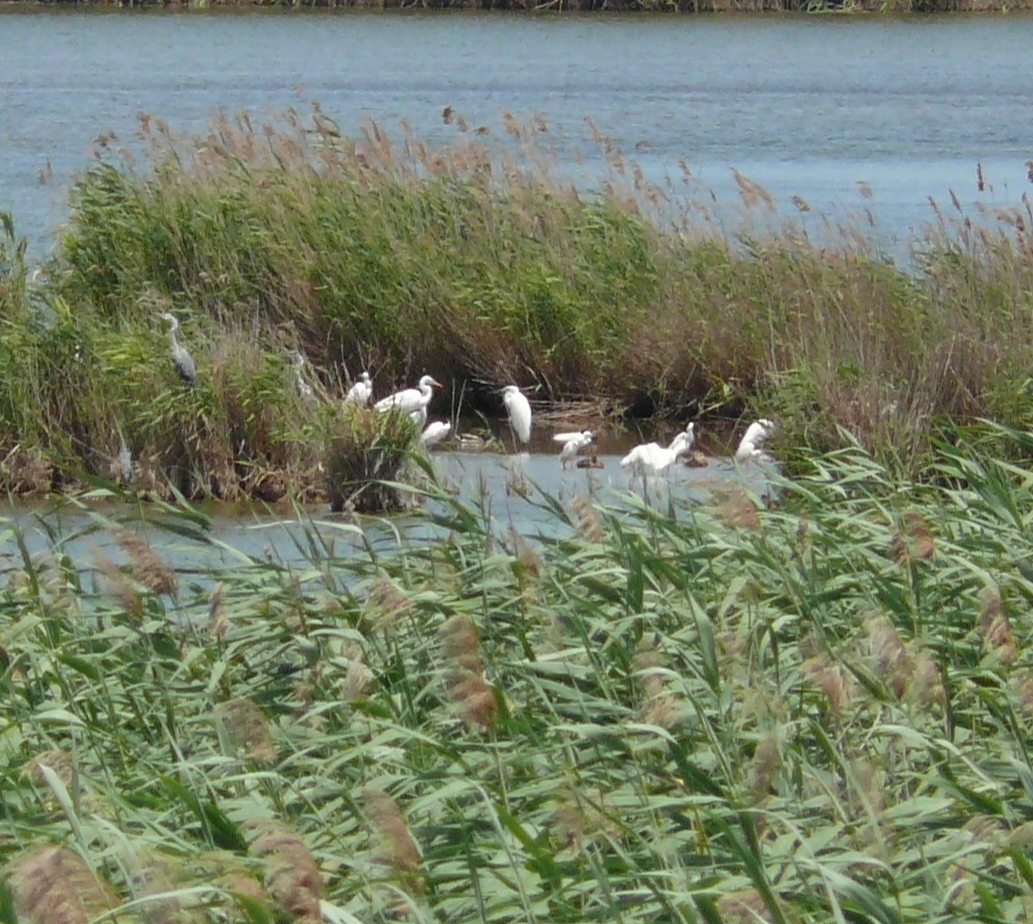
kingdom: Animalia
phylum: Chordata
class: Aves
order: Pelecaniformes
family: Ardeidae
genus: Egretta
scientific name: Egretta garzetta
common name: Little egret
